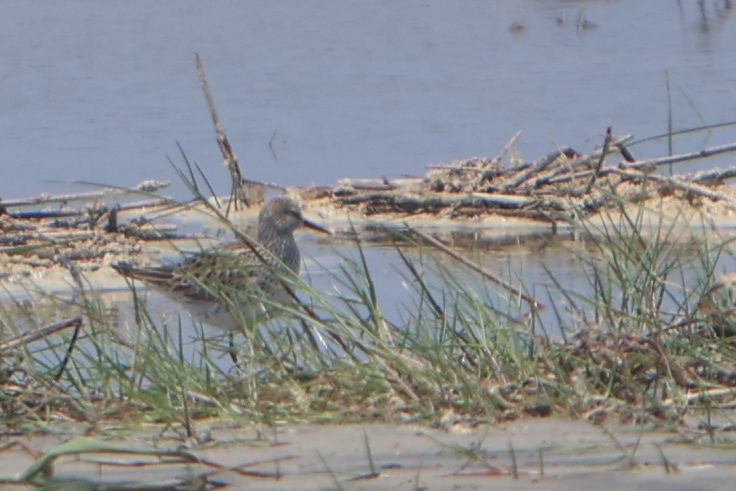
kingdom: Animalia
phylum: Chordata
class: Aves
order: Charadriiformes
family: Scolopacidae
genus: Calidris
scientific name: Calidris fuscicollis
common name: White-rumped sandpiper
